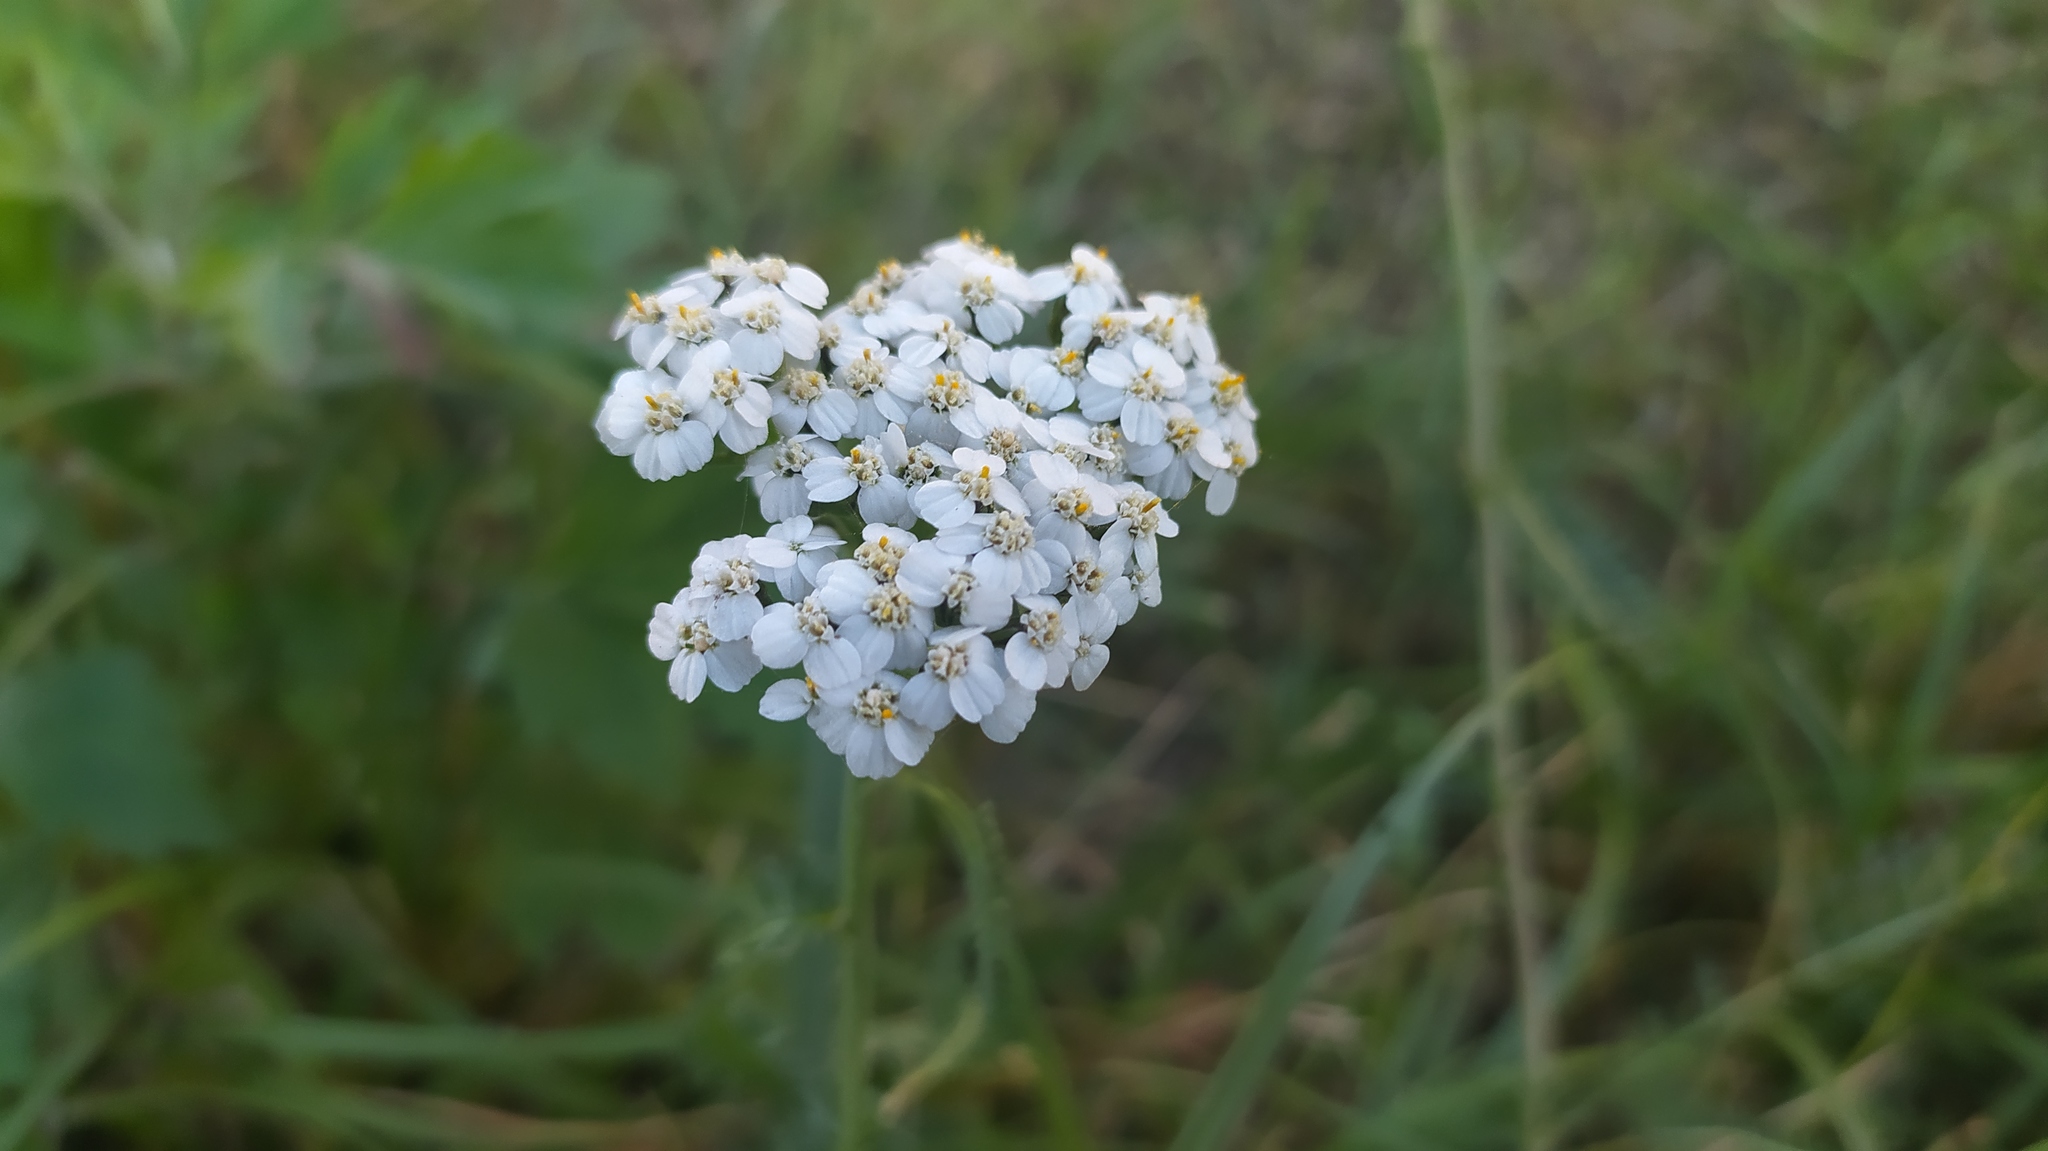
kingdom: Plantae
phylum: Tracheophyta
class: Magnoliopsida
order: Asterales
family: Asteraceae
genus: Achillea
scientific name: Achillea millefolium
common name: Yarrow
